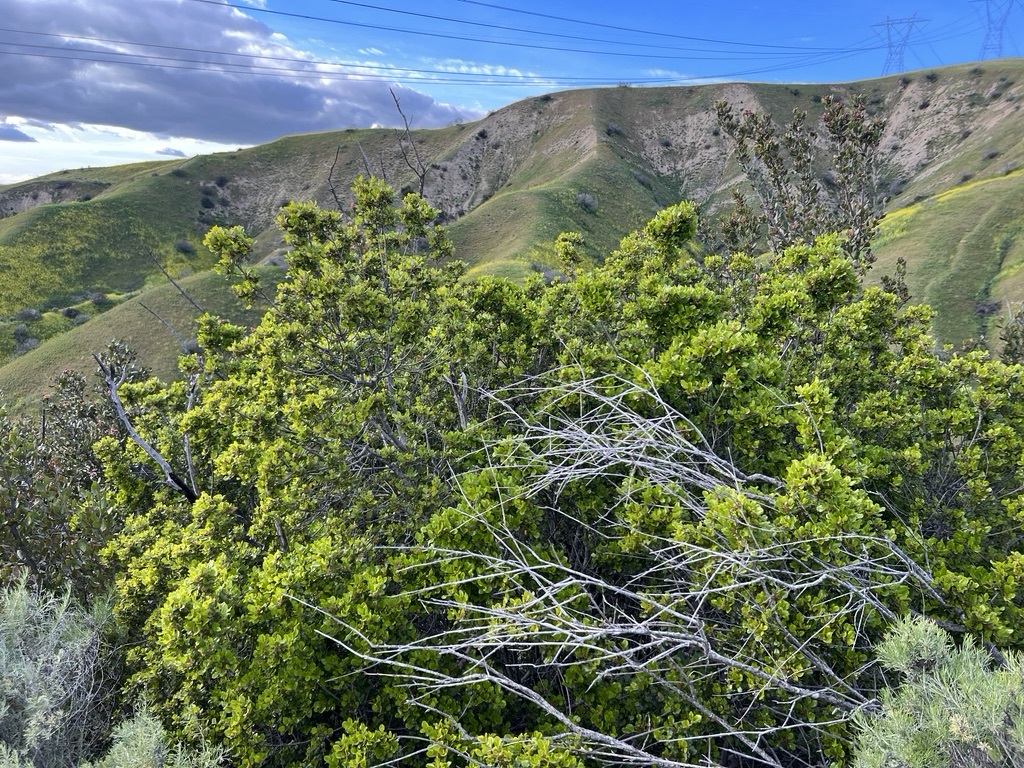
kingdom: Plantae
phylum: Tracheophyta
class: Magnoliopsida
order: Rosales
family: Rhamnaceae
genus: Endotropis
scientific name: Endotropis crocea
